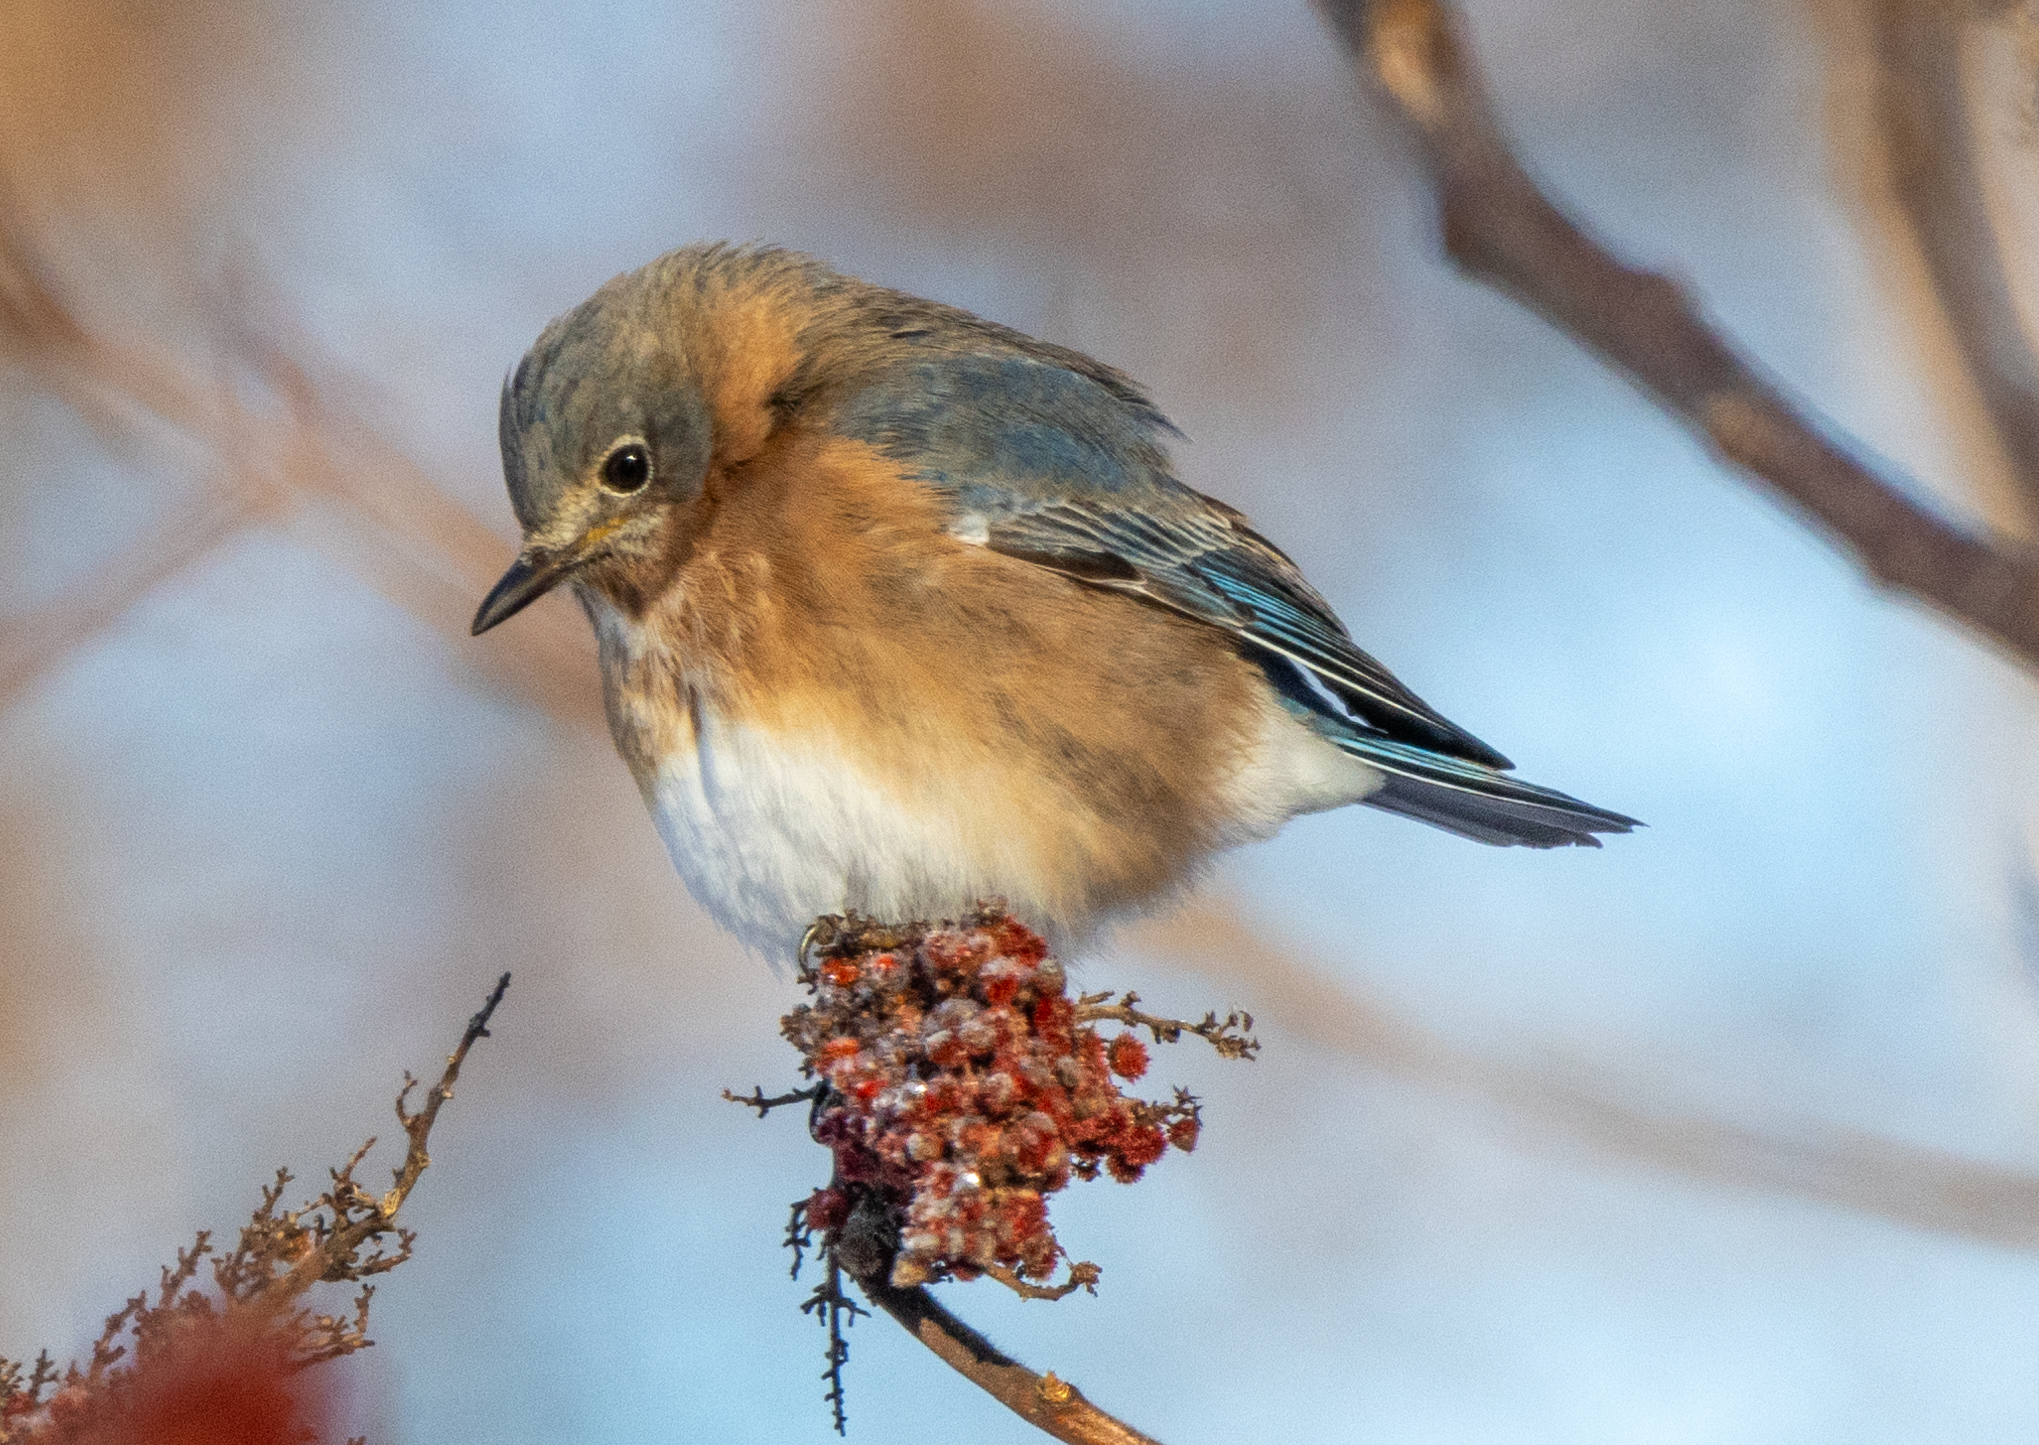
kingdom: Animalia
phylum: Chordata
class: Aves
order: Passeriformes
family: Turdidae
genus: Sialia
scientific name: Sialia sialis
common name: Eastern bluebird
